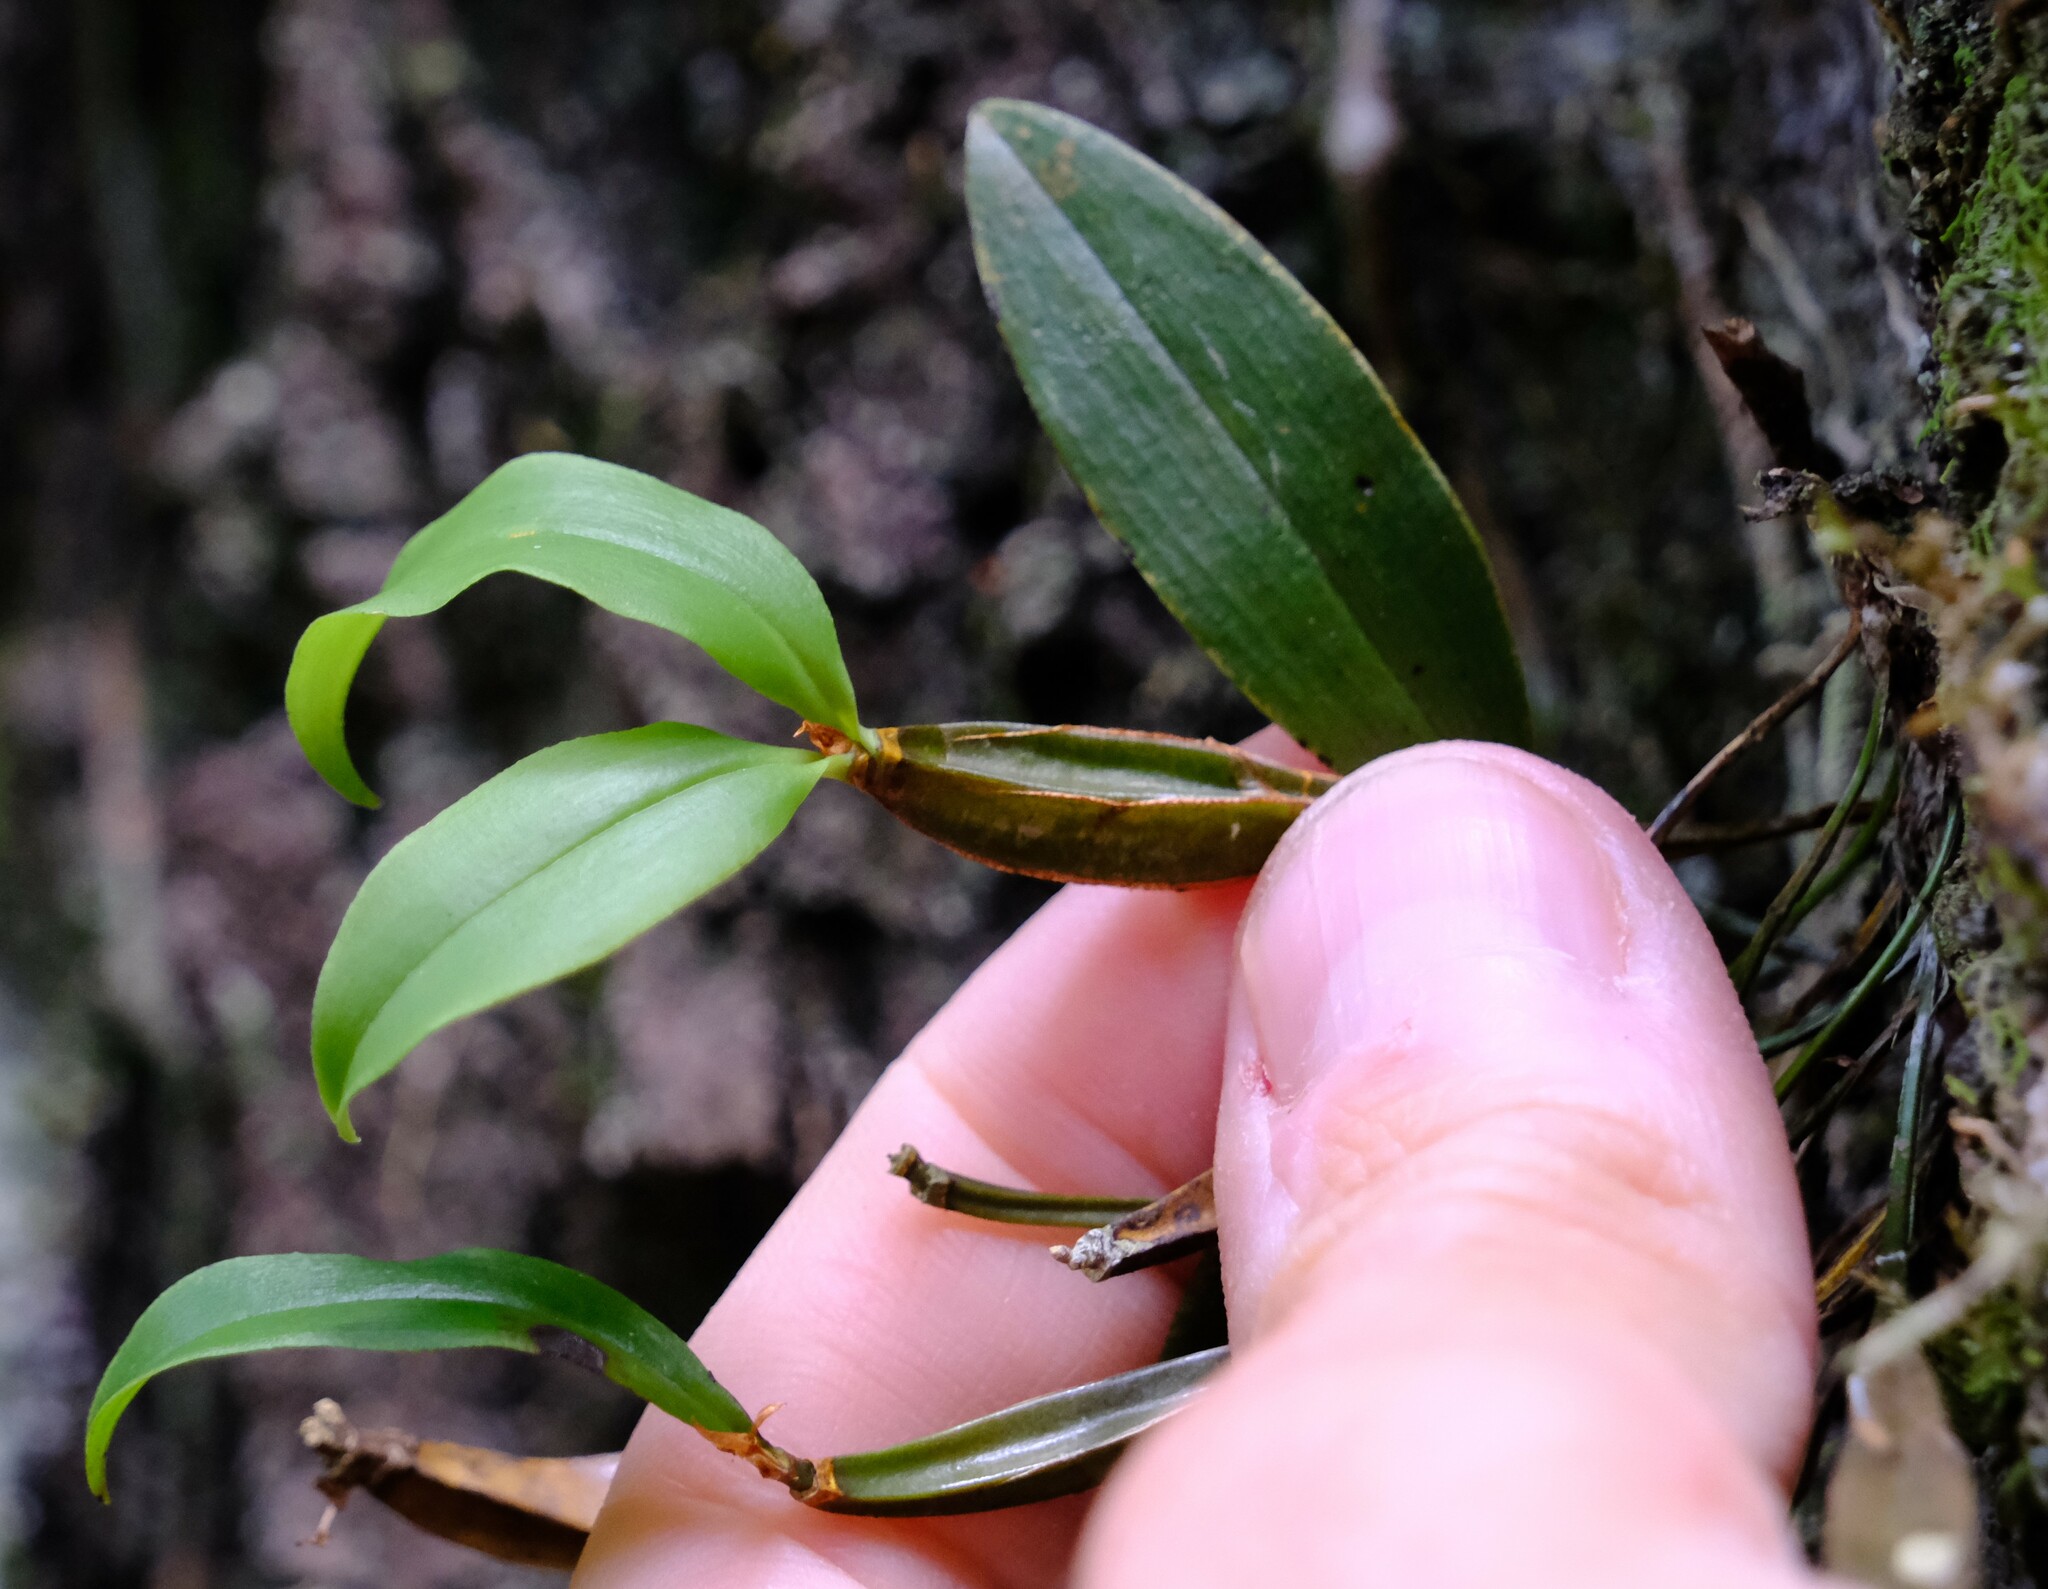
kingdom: Plantae
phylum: Tracheophyta
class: Liliopsida
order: Asparagales
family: Orchidaceae
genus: Dendrobium
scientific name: Dendrobium tetragonum
